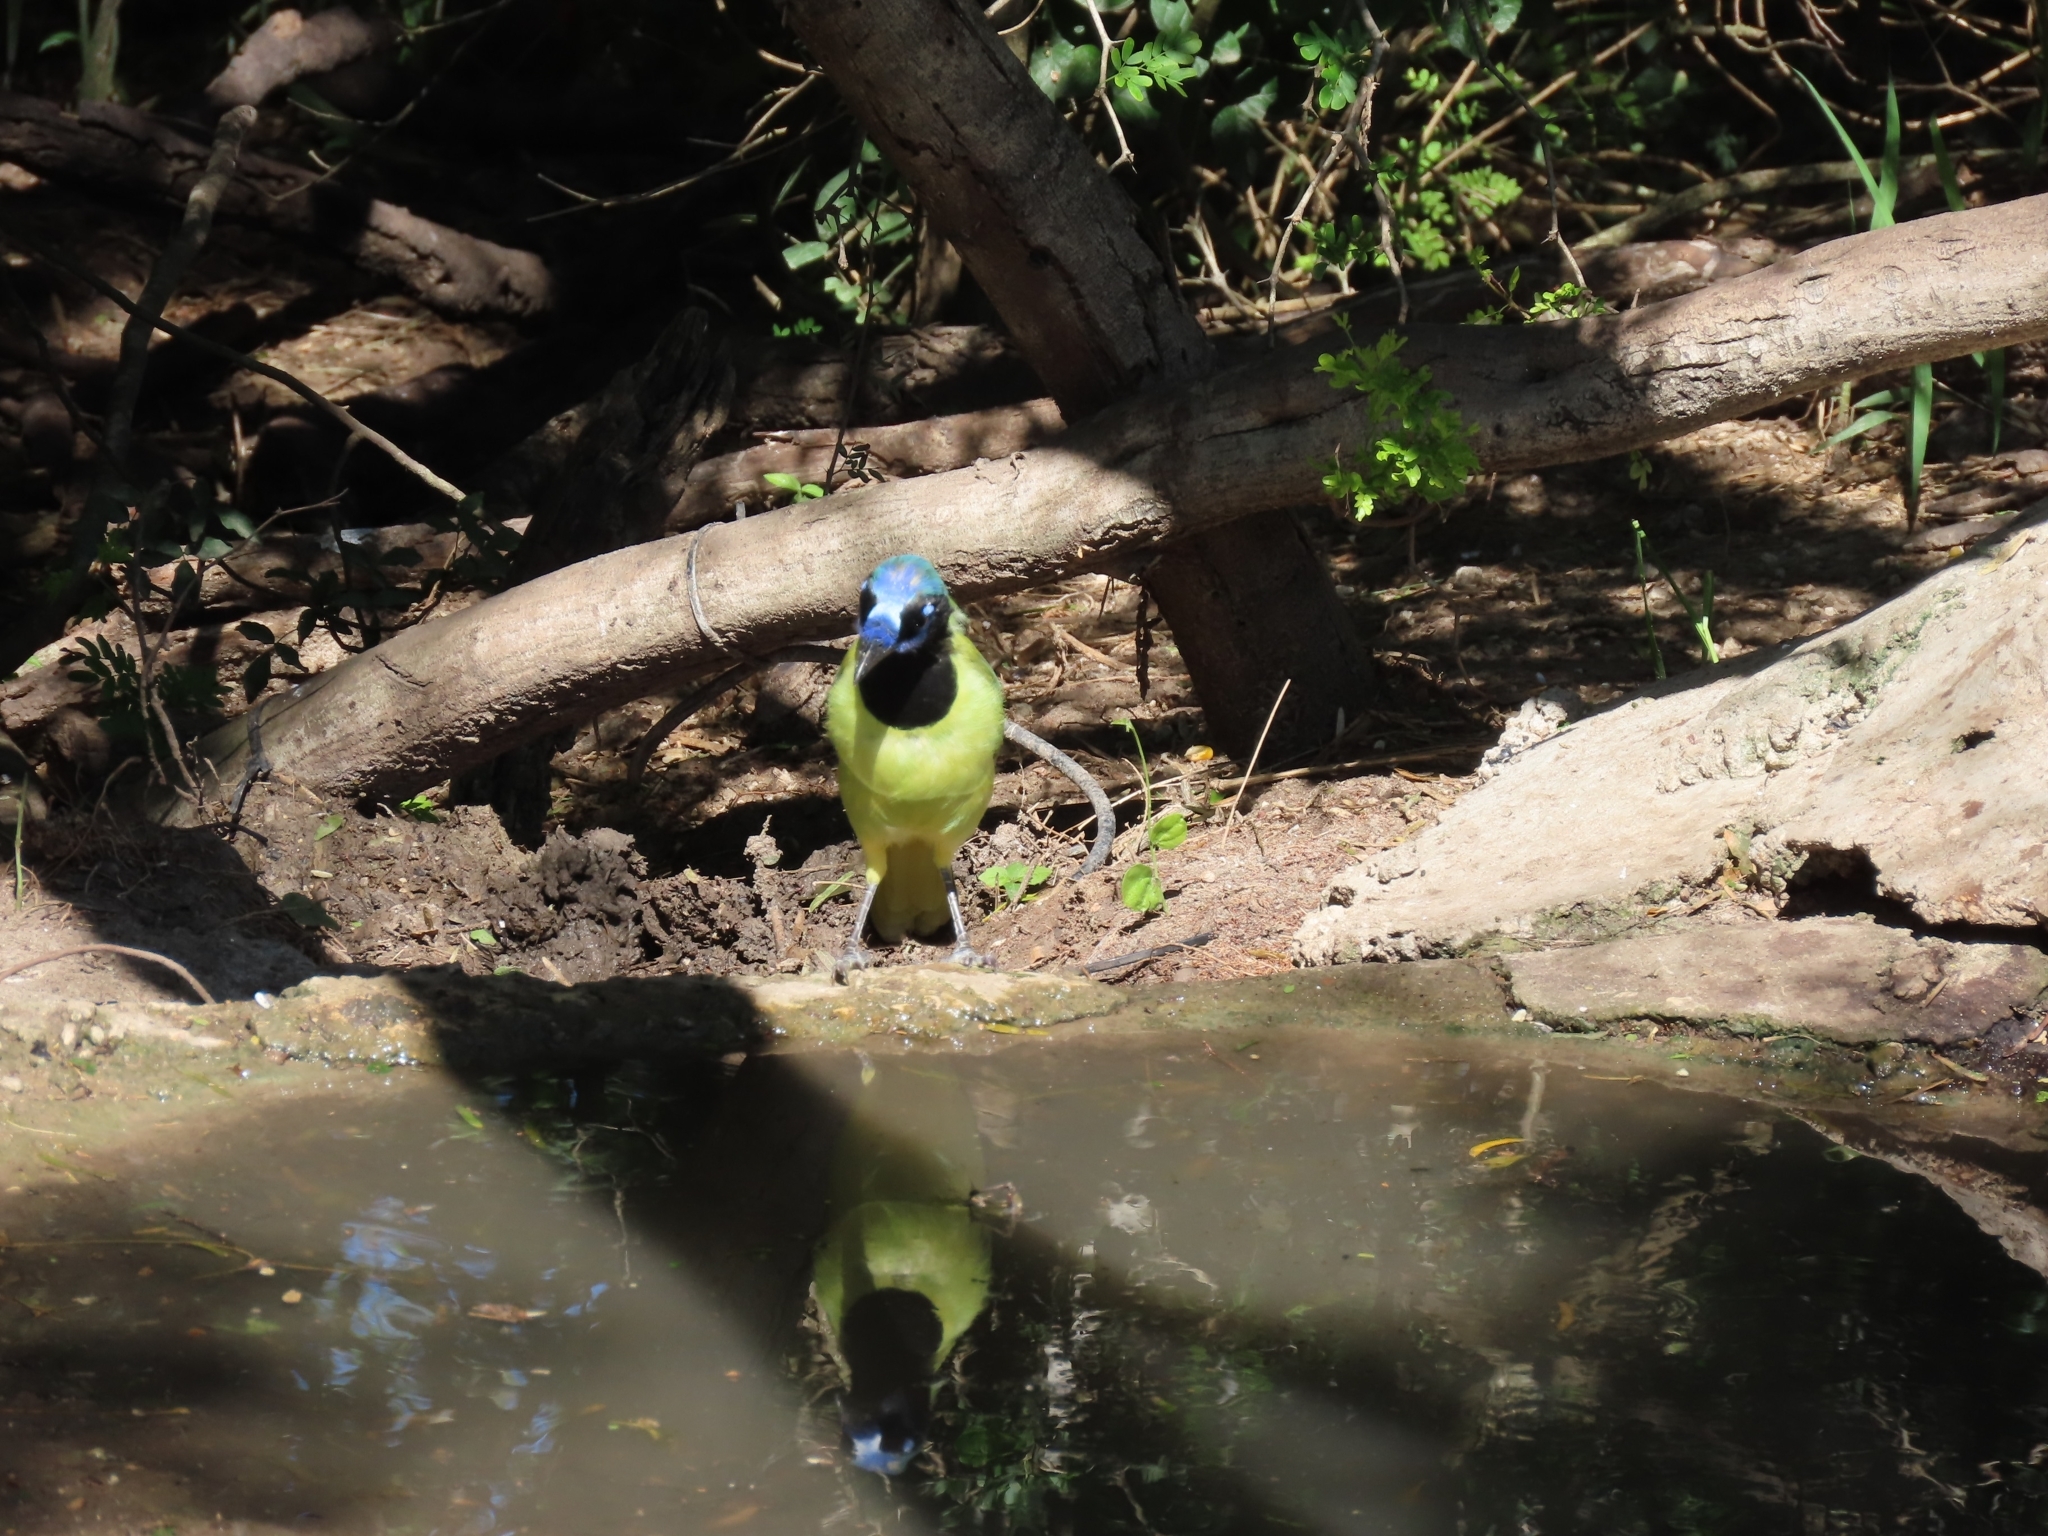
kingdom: Animalia
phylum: Chordata
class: Aves
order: Passeriformes
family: Corvidae
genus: Cyanocorax
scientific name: Cyanocorax yncas
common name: Green jay
